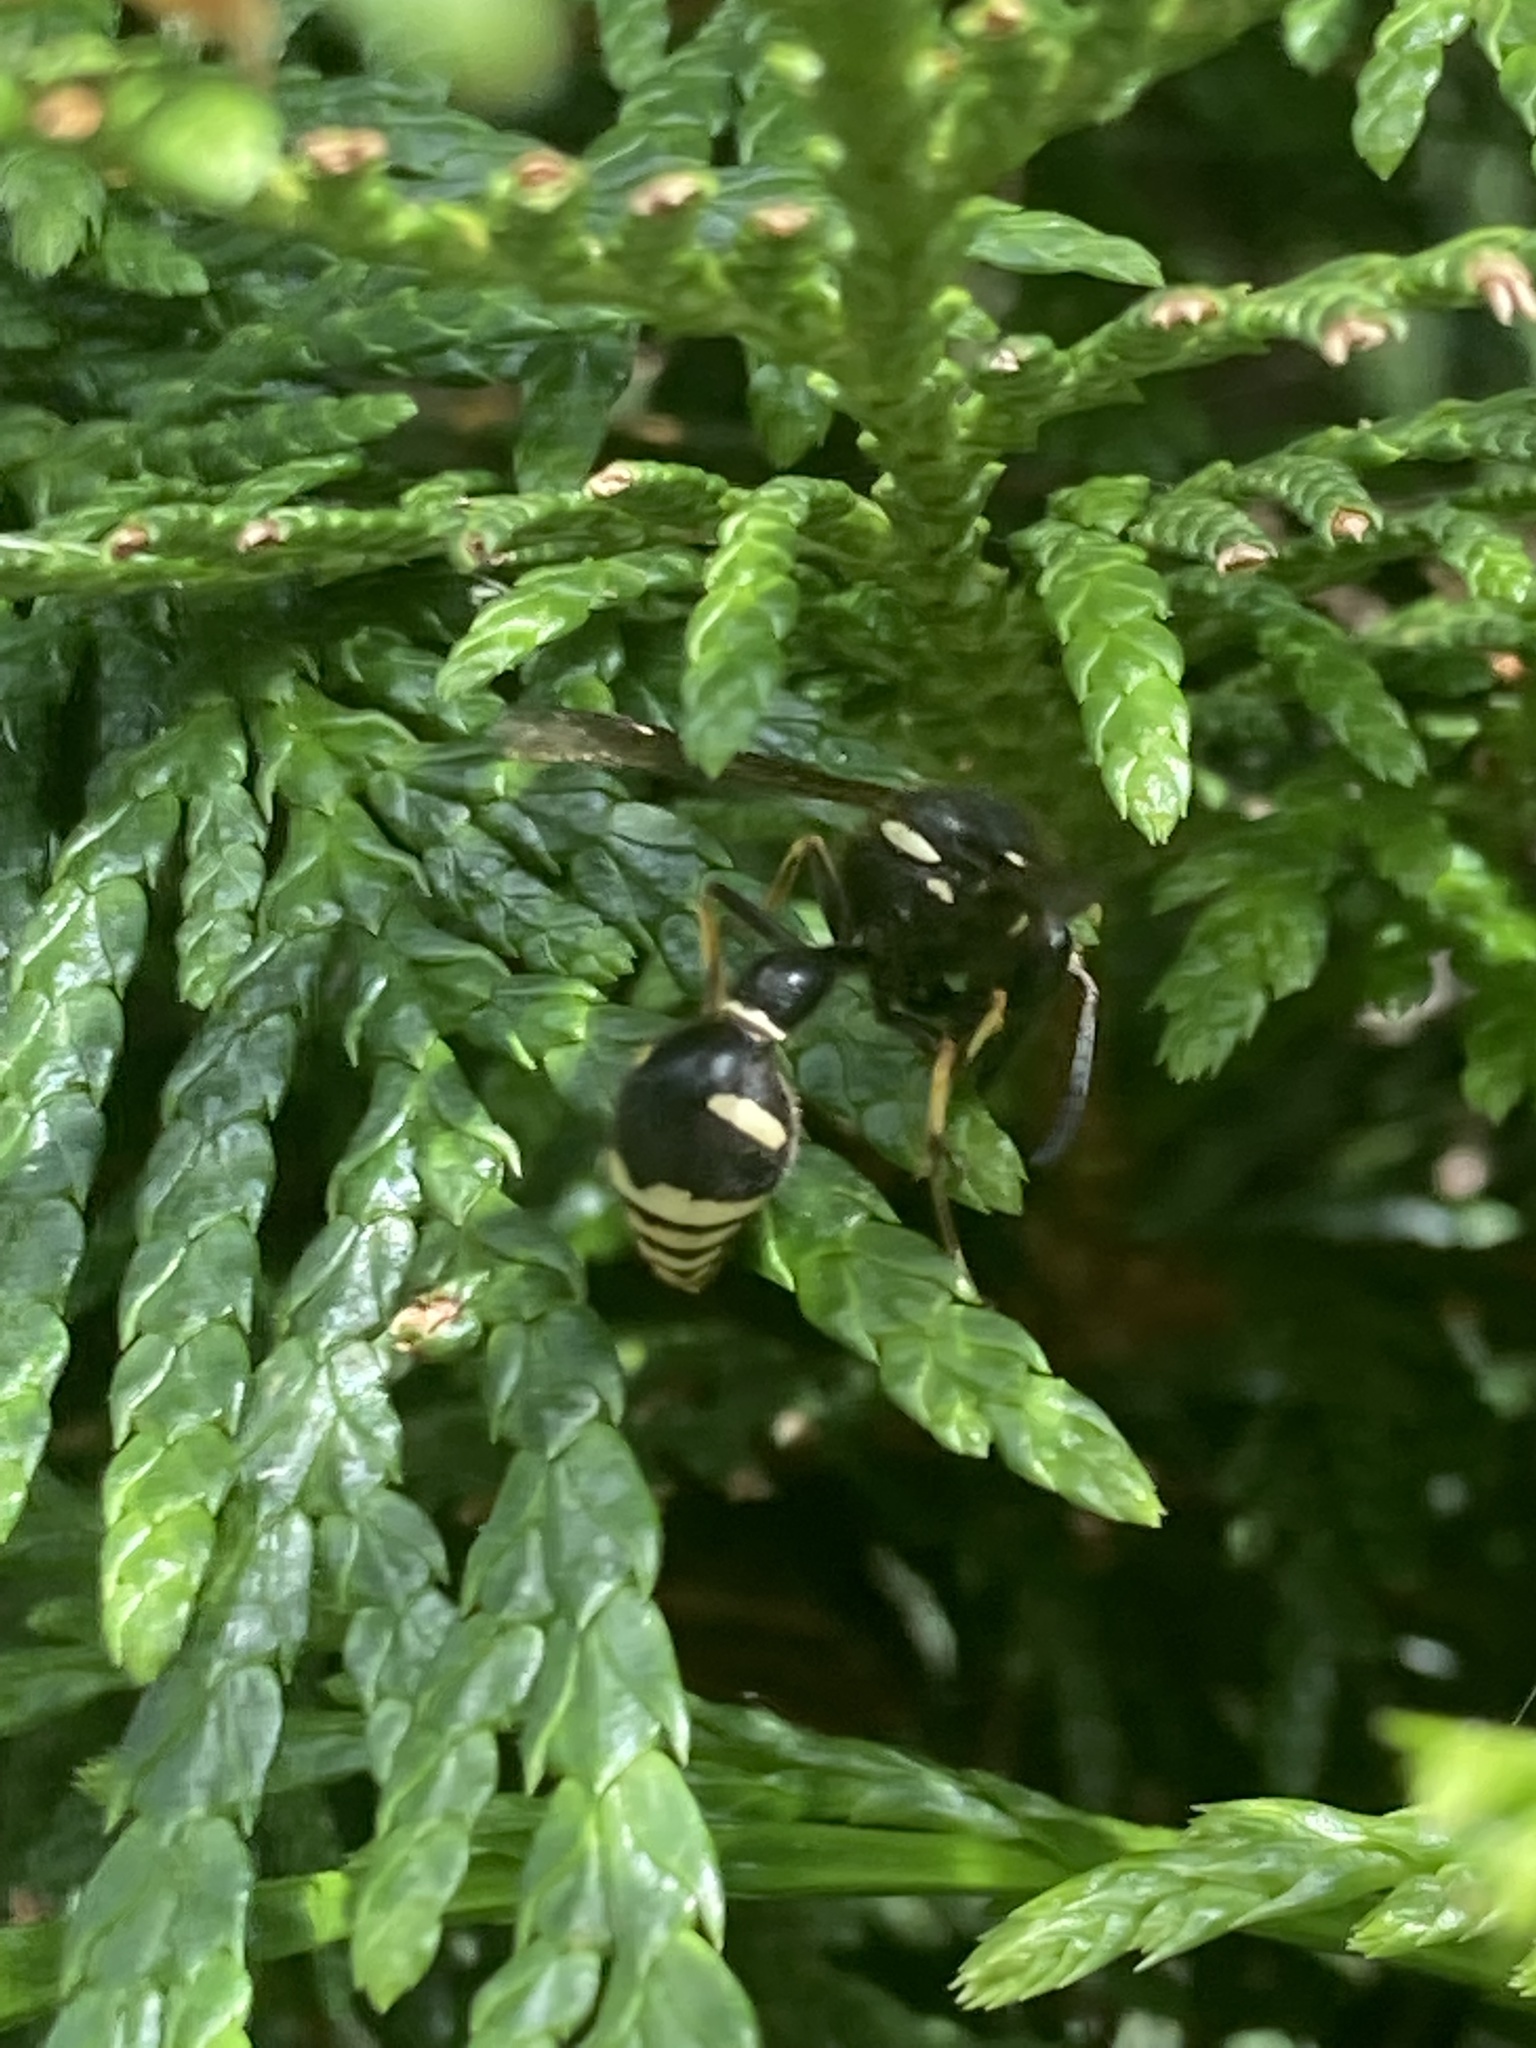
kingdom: Animalia
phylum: Arthropoda
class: Insecta
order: Hymenoptera
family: Vespidae
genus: Eumenes
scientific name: Eumenes crucifera
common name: Cross potter wasp
